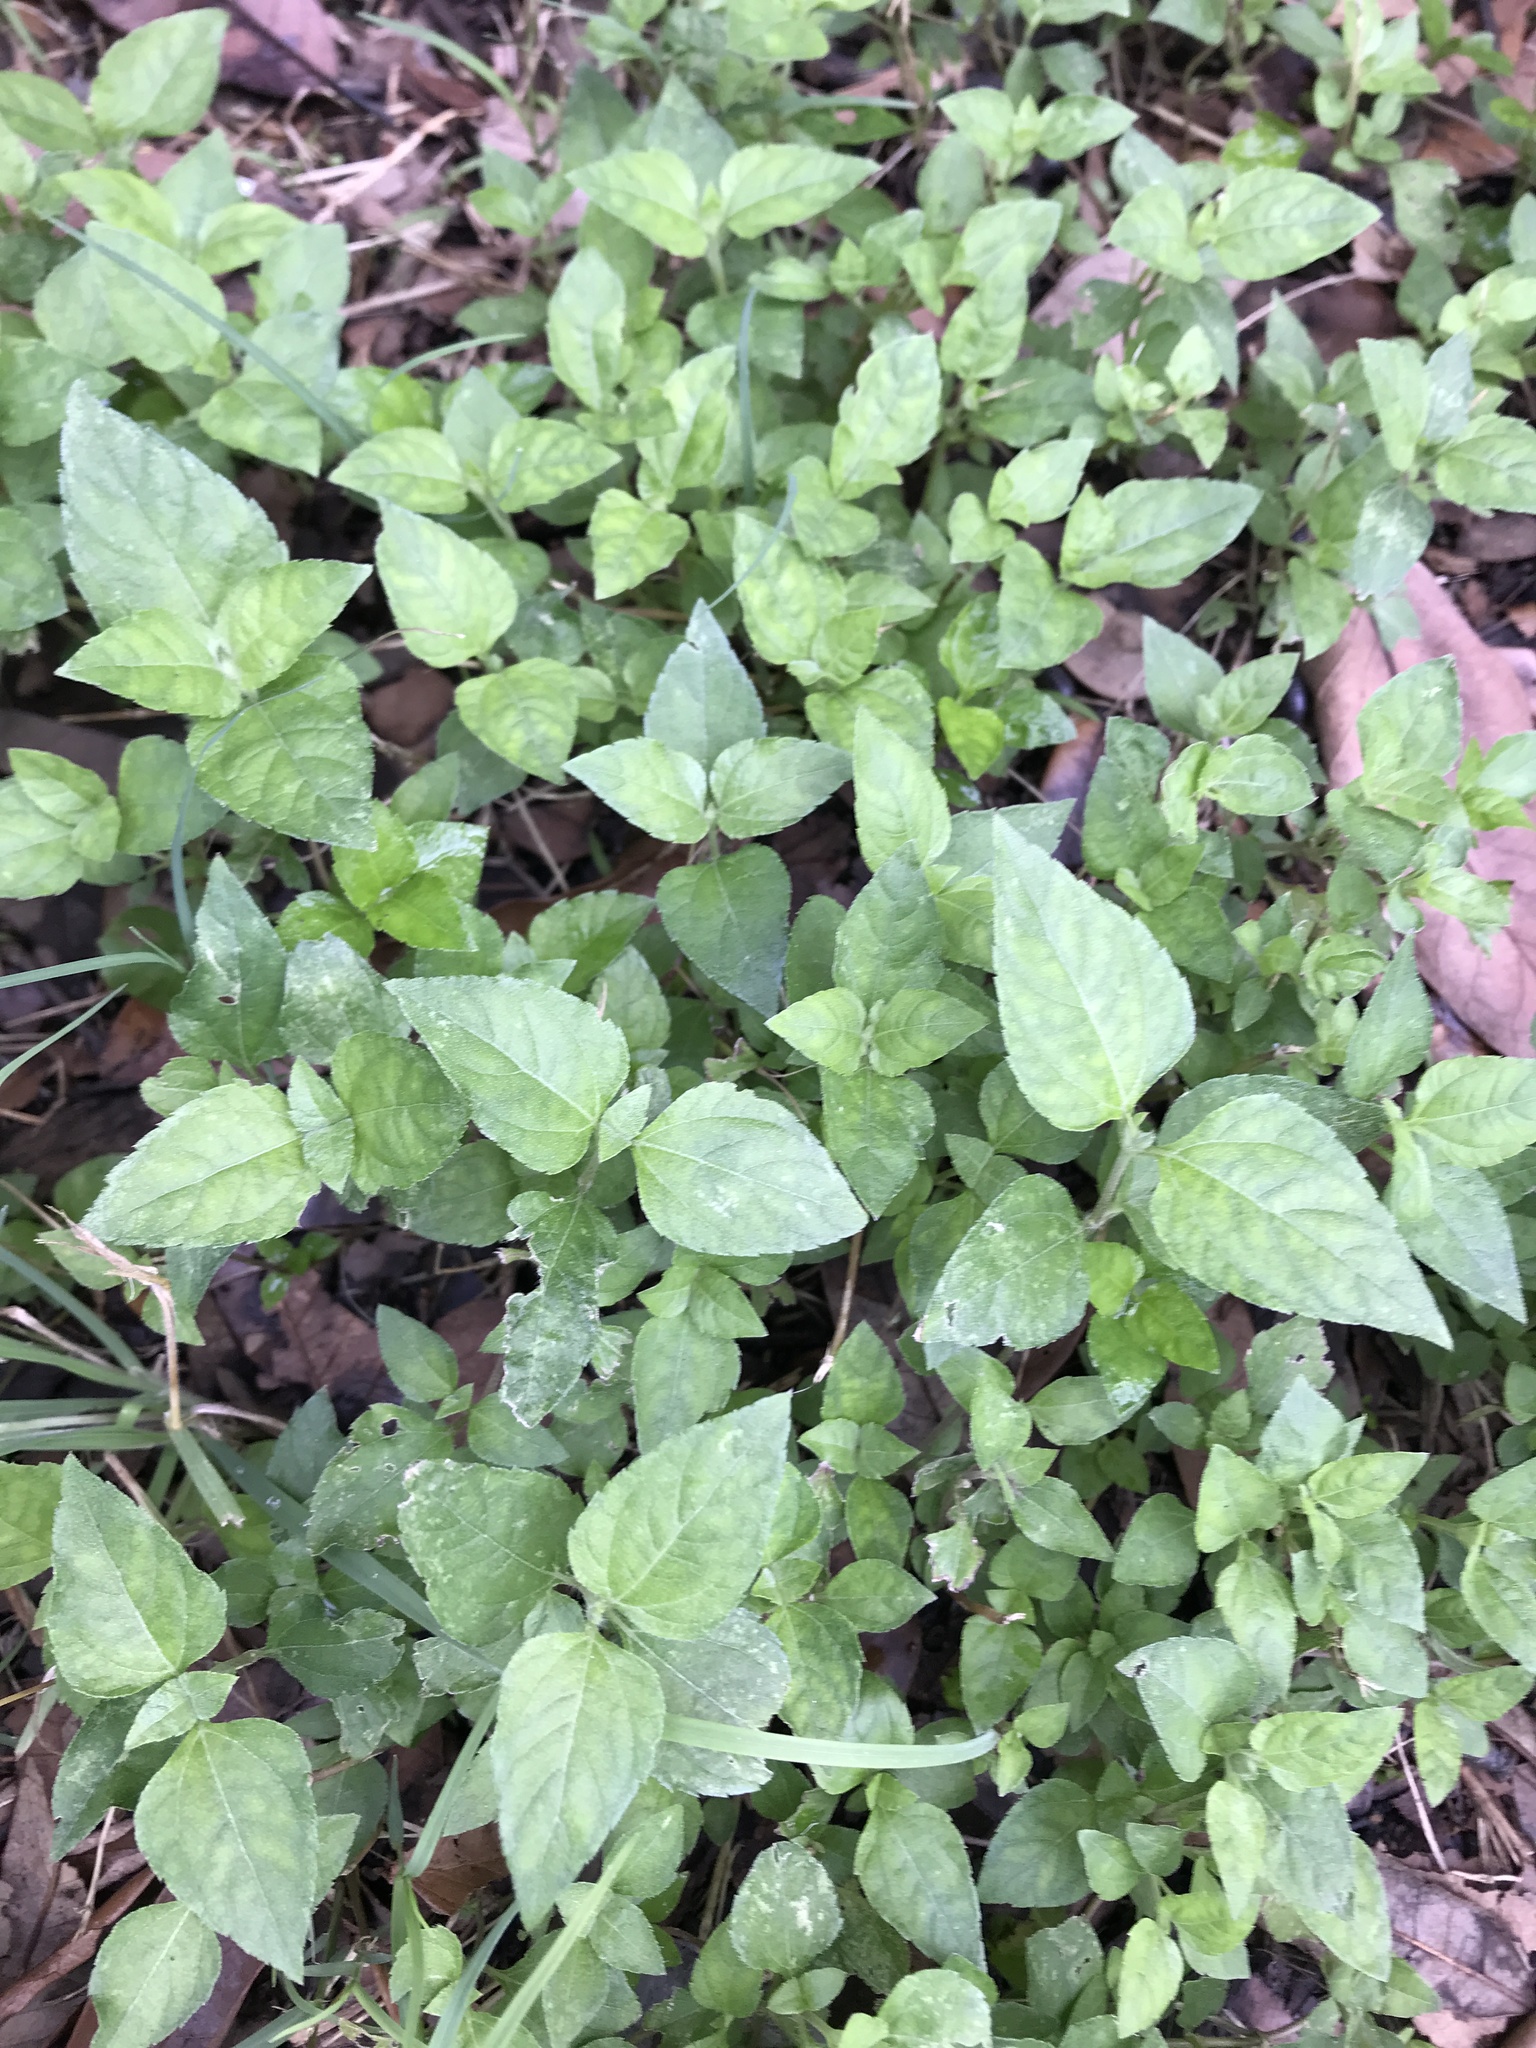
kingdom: Plantae
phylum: Tracheophyta
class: Magnoliopsida
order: Asterales
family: Asteraceae
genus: Calyptocarpus
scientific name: Calyptocarpus vialis
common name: Straggler daisy
